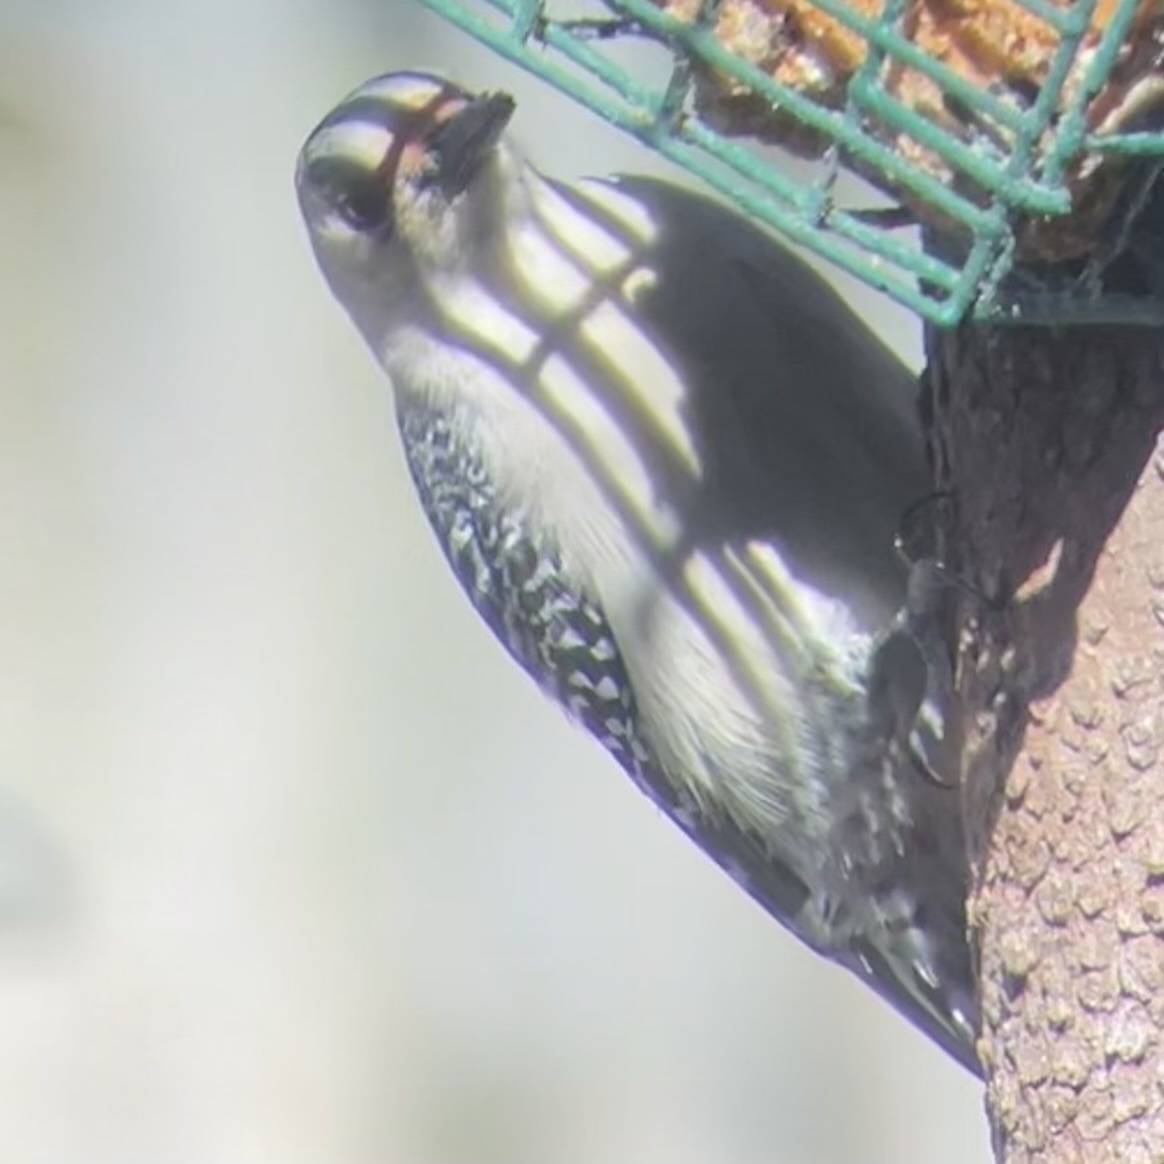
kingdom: Animalia
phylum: Chordata
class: Aves
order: Piciformes
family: Picidae
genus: Melanerpes
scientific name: Melanerpes carolinus
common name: Red-bellied woodpecker
